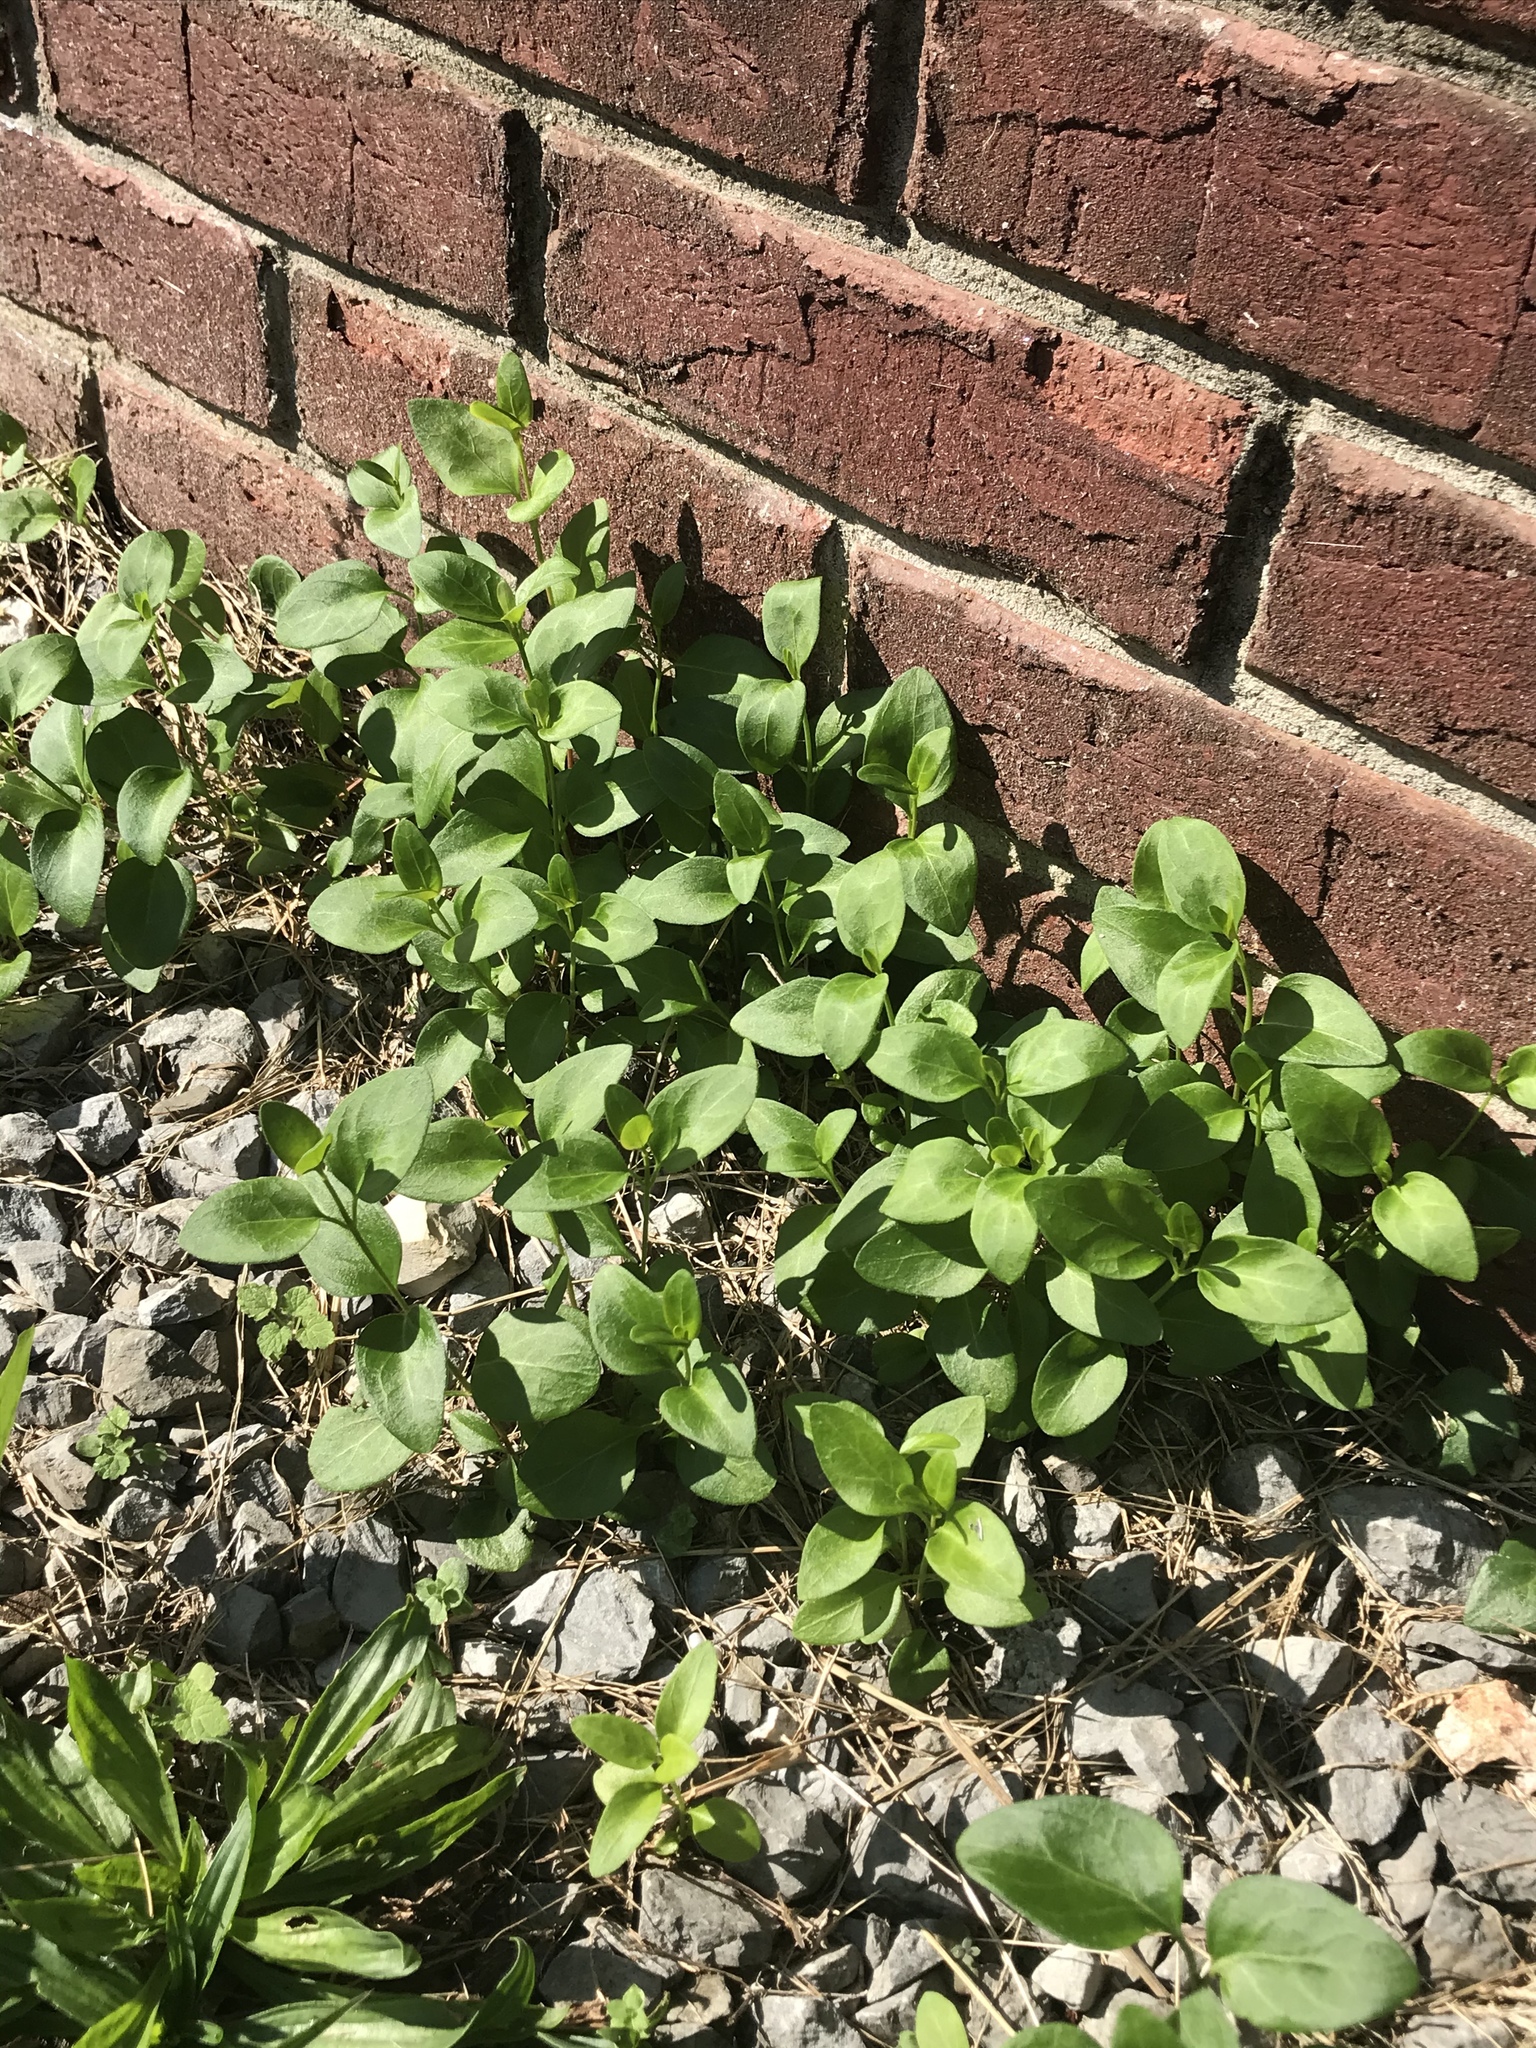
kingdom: Plantae
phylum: Tracheophyta
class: Magnoliopsida
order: Gentianales
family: Apocynaceae
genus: Vinca
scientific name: Vinca major
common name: Greater periwinkle
